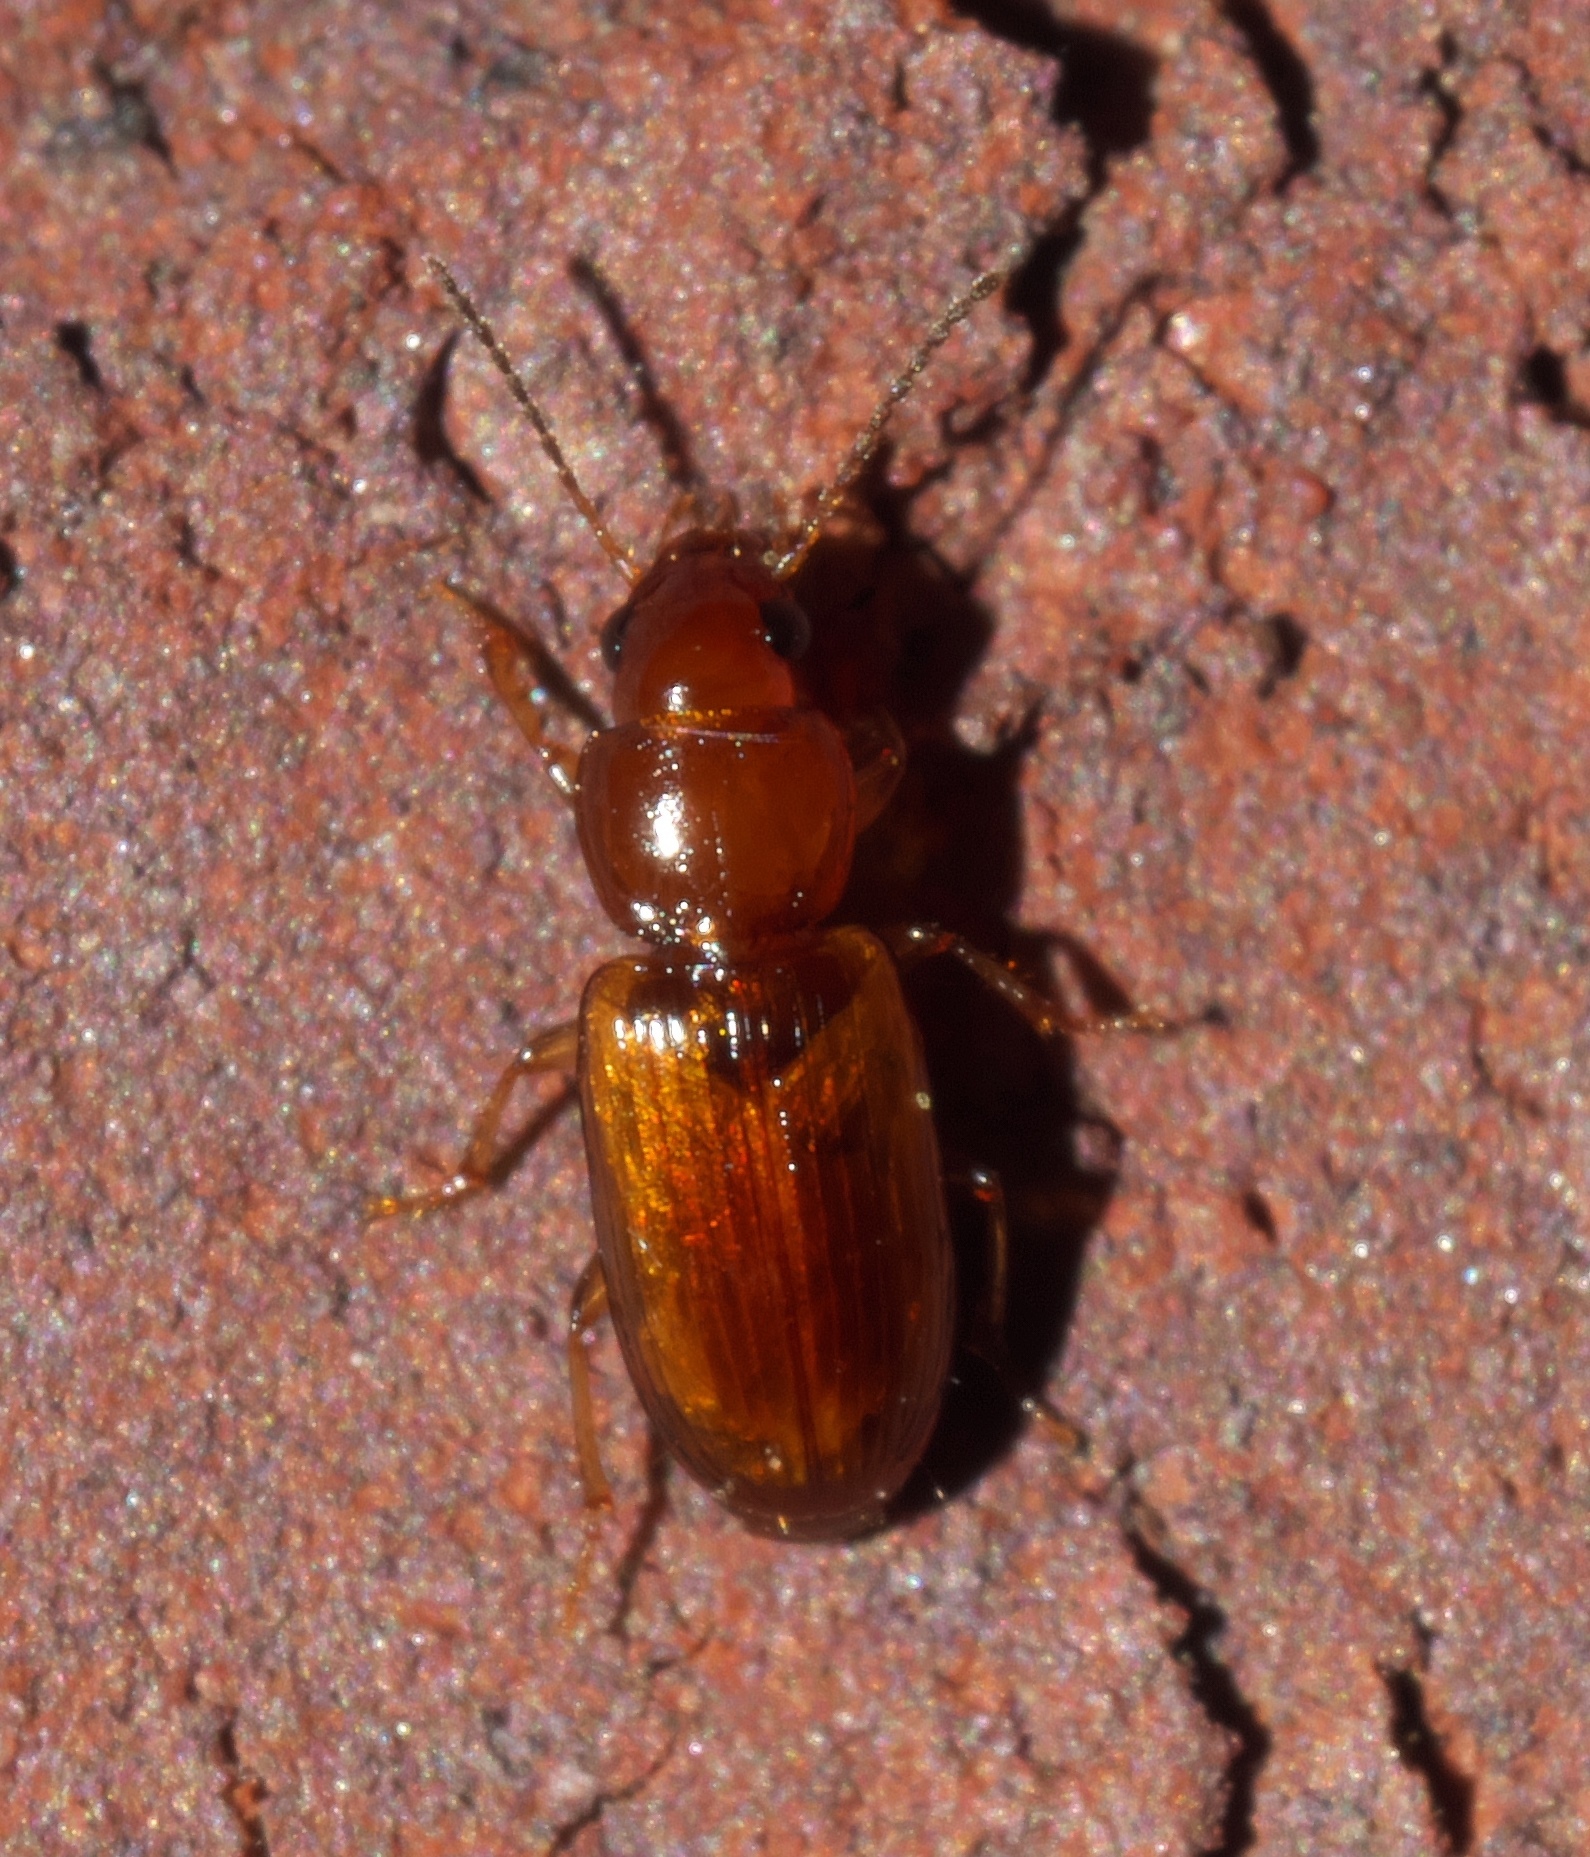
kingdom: Animalia
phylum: Arthropoda
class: Insecta
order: Coleoptera
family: Carabidae
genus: Acupalpus
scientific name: Acupalpus testaceus
